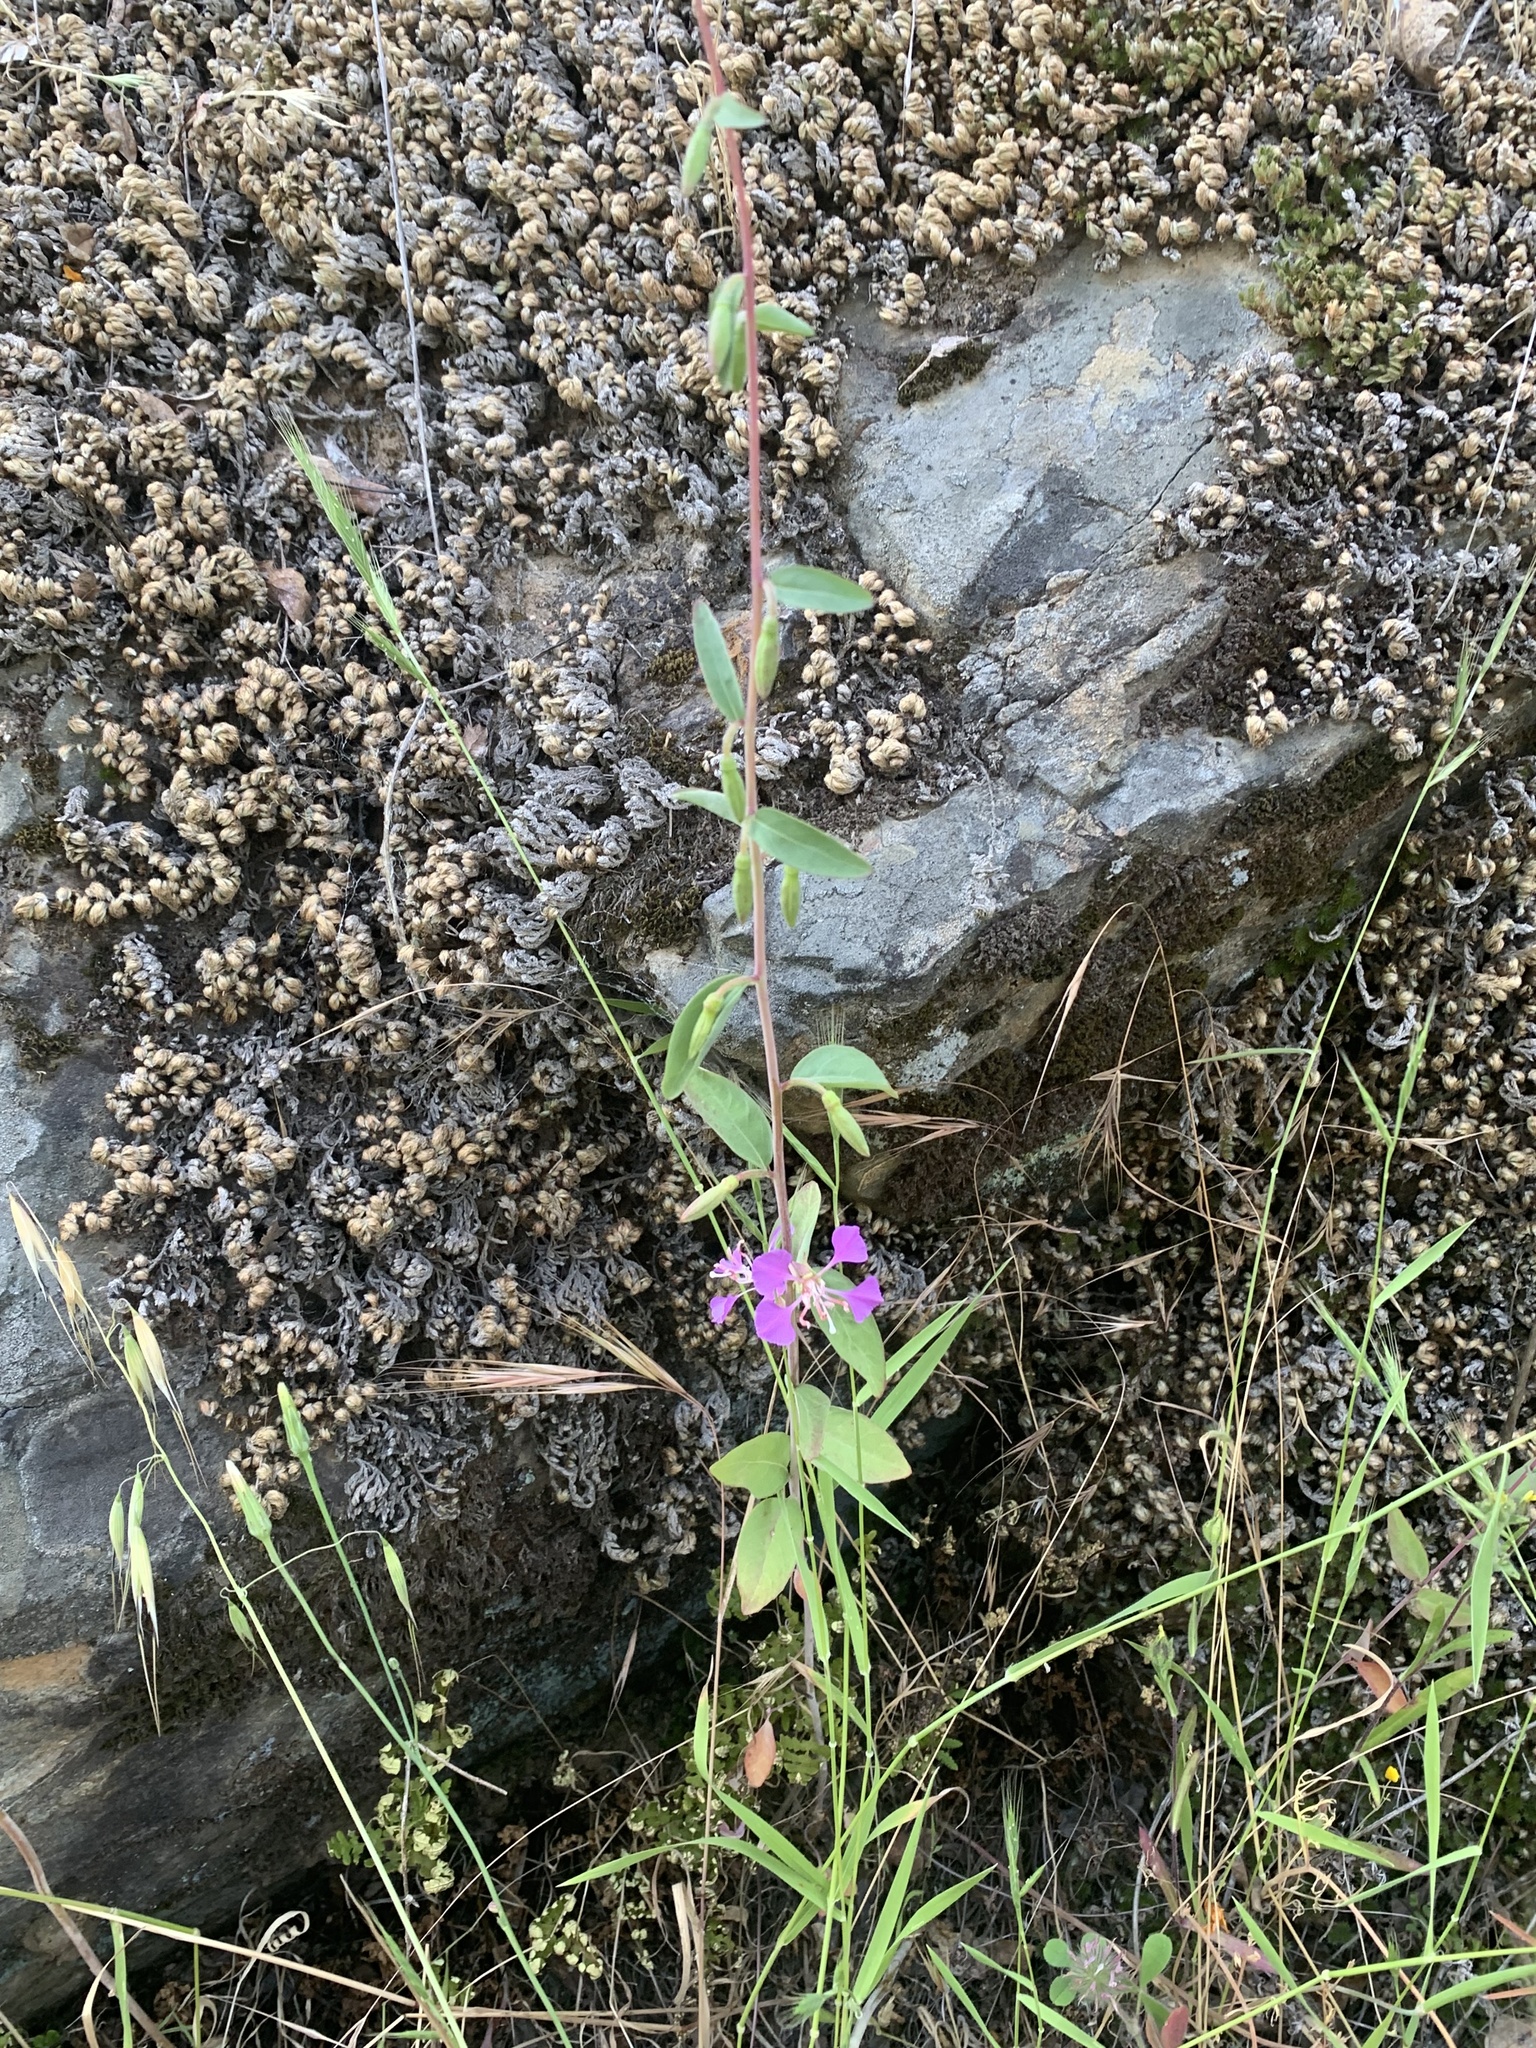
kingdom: Plantae
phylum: Tracheophyta
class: Magnoliopsida
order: Myrtales
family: Onagraceae
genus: Clarkia
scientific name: Clarkia unguiculata
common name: Clarkia
